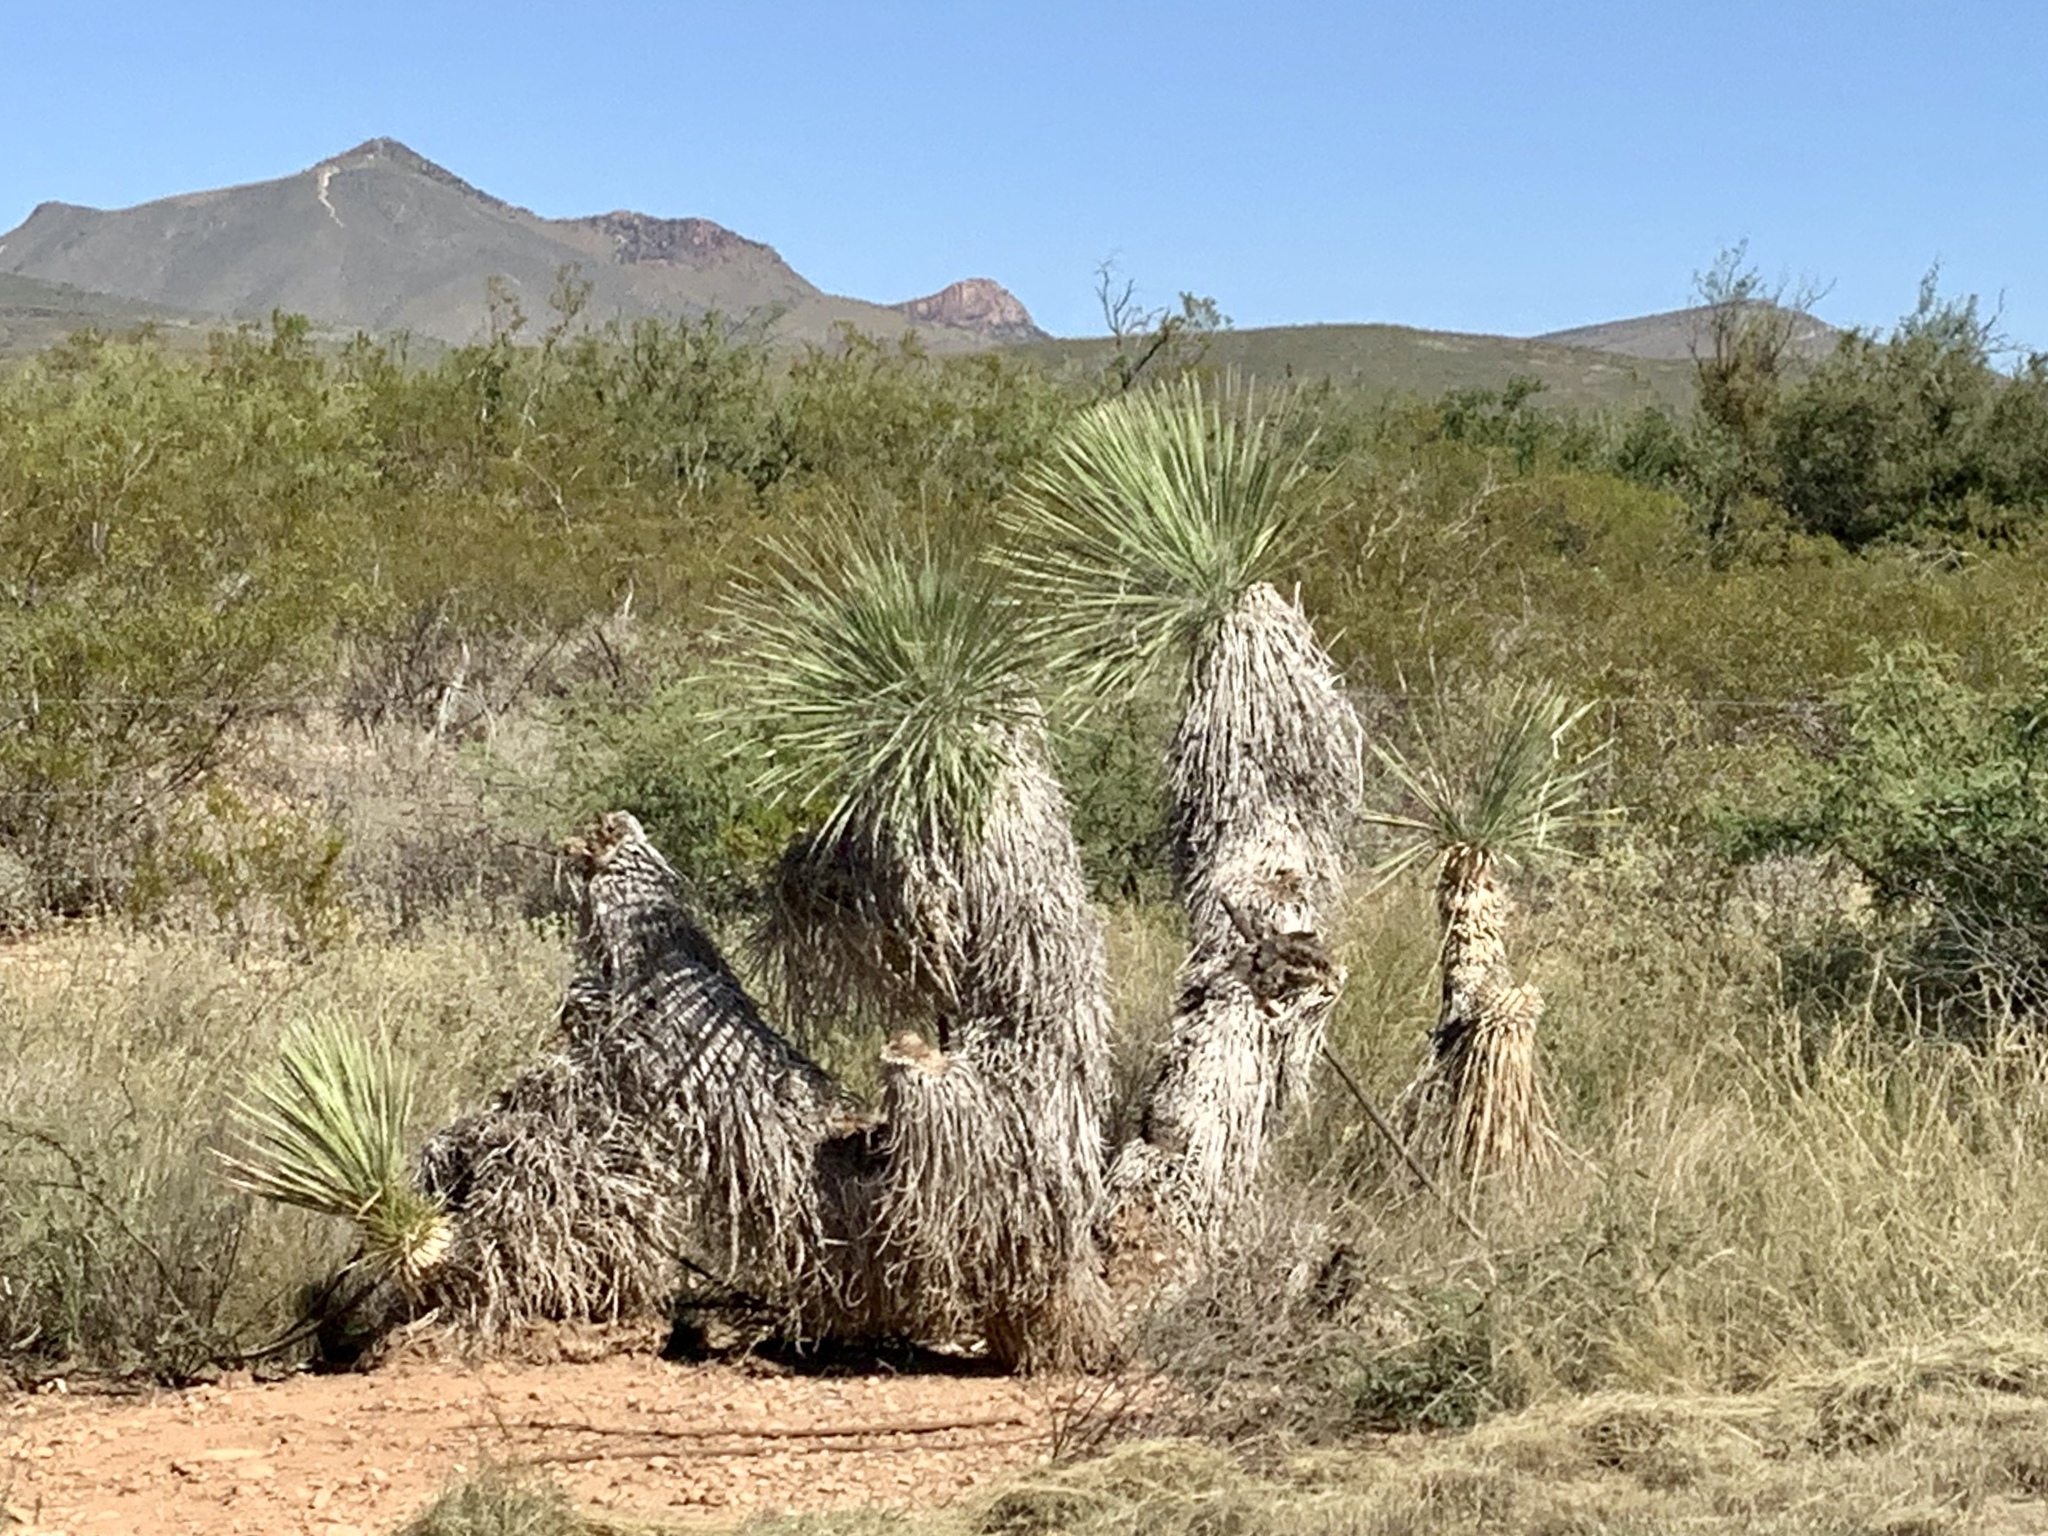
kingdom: Plantae
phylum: Tracheophyta
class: Liliopsida
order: Asparagales
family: Asparagaceae
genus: Yucca
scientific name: Yucca elata
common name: Palmella
